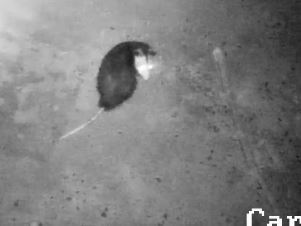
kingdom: Animalia
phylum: Chordata
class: Mammalia
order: Didelphimorphia
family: Didelphidae
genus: Didelphis
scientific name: Didelphis virginiana
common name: Virginia opossum
